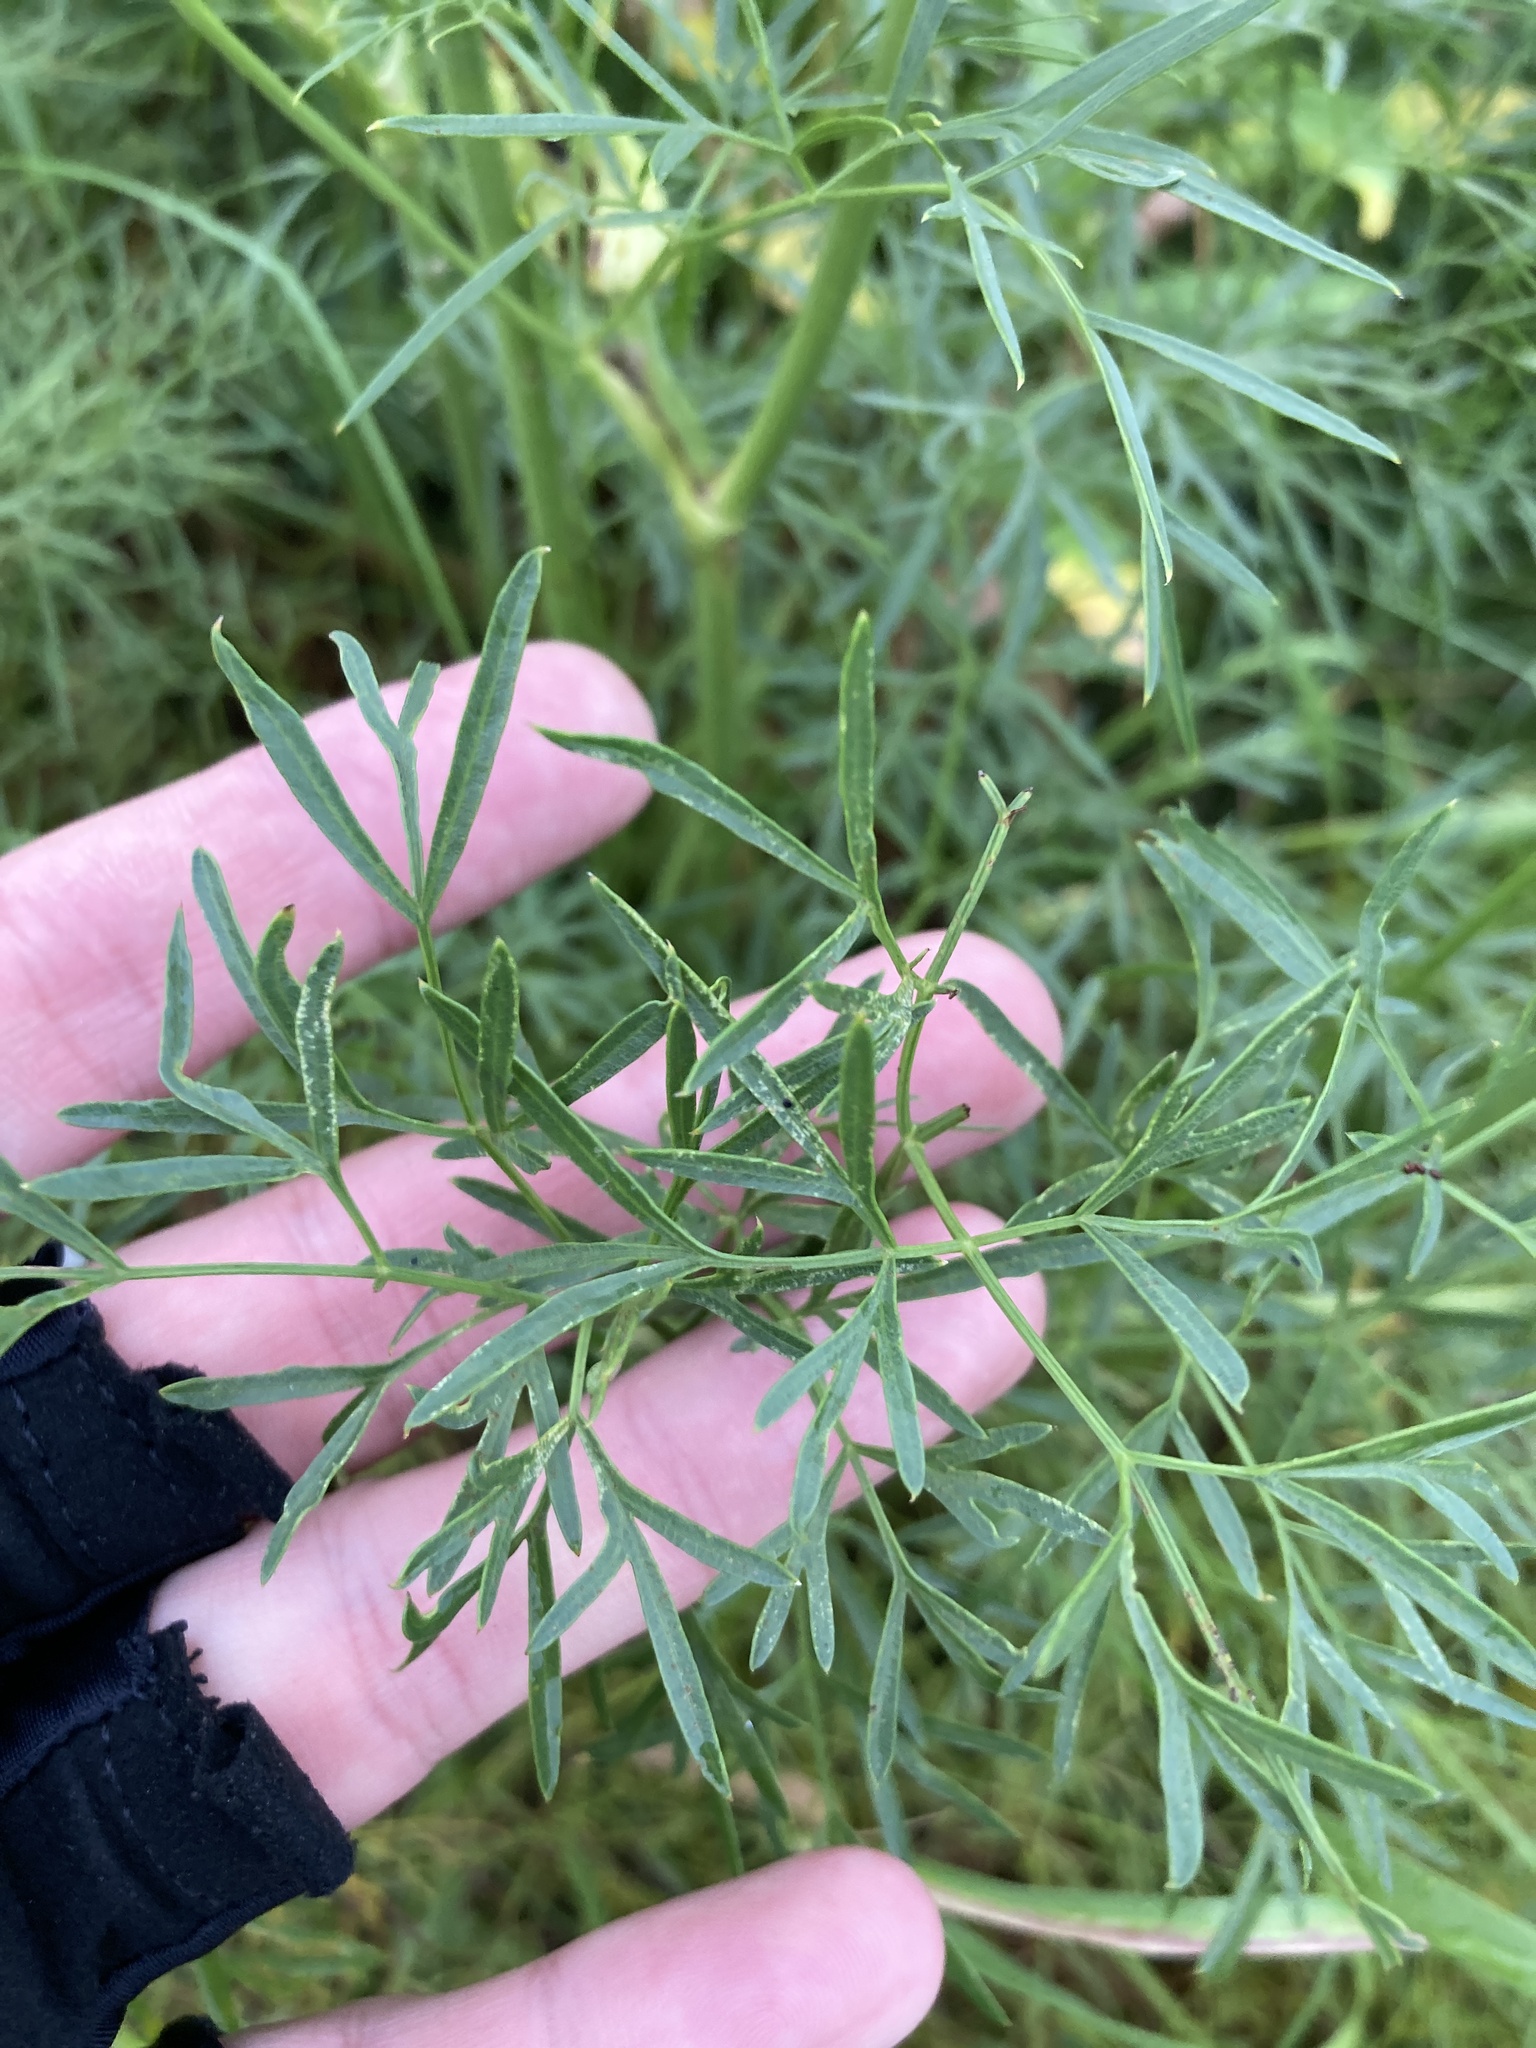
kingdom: Plantae
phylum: Tracheophyta
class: Magnoliopsida
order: Apiales
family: Apiaceae
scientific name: Apiaceae
